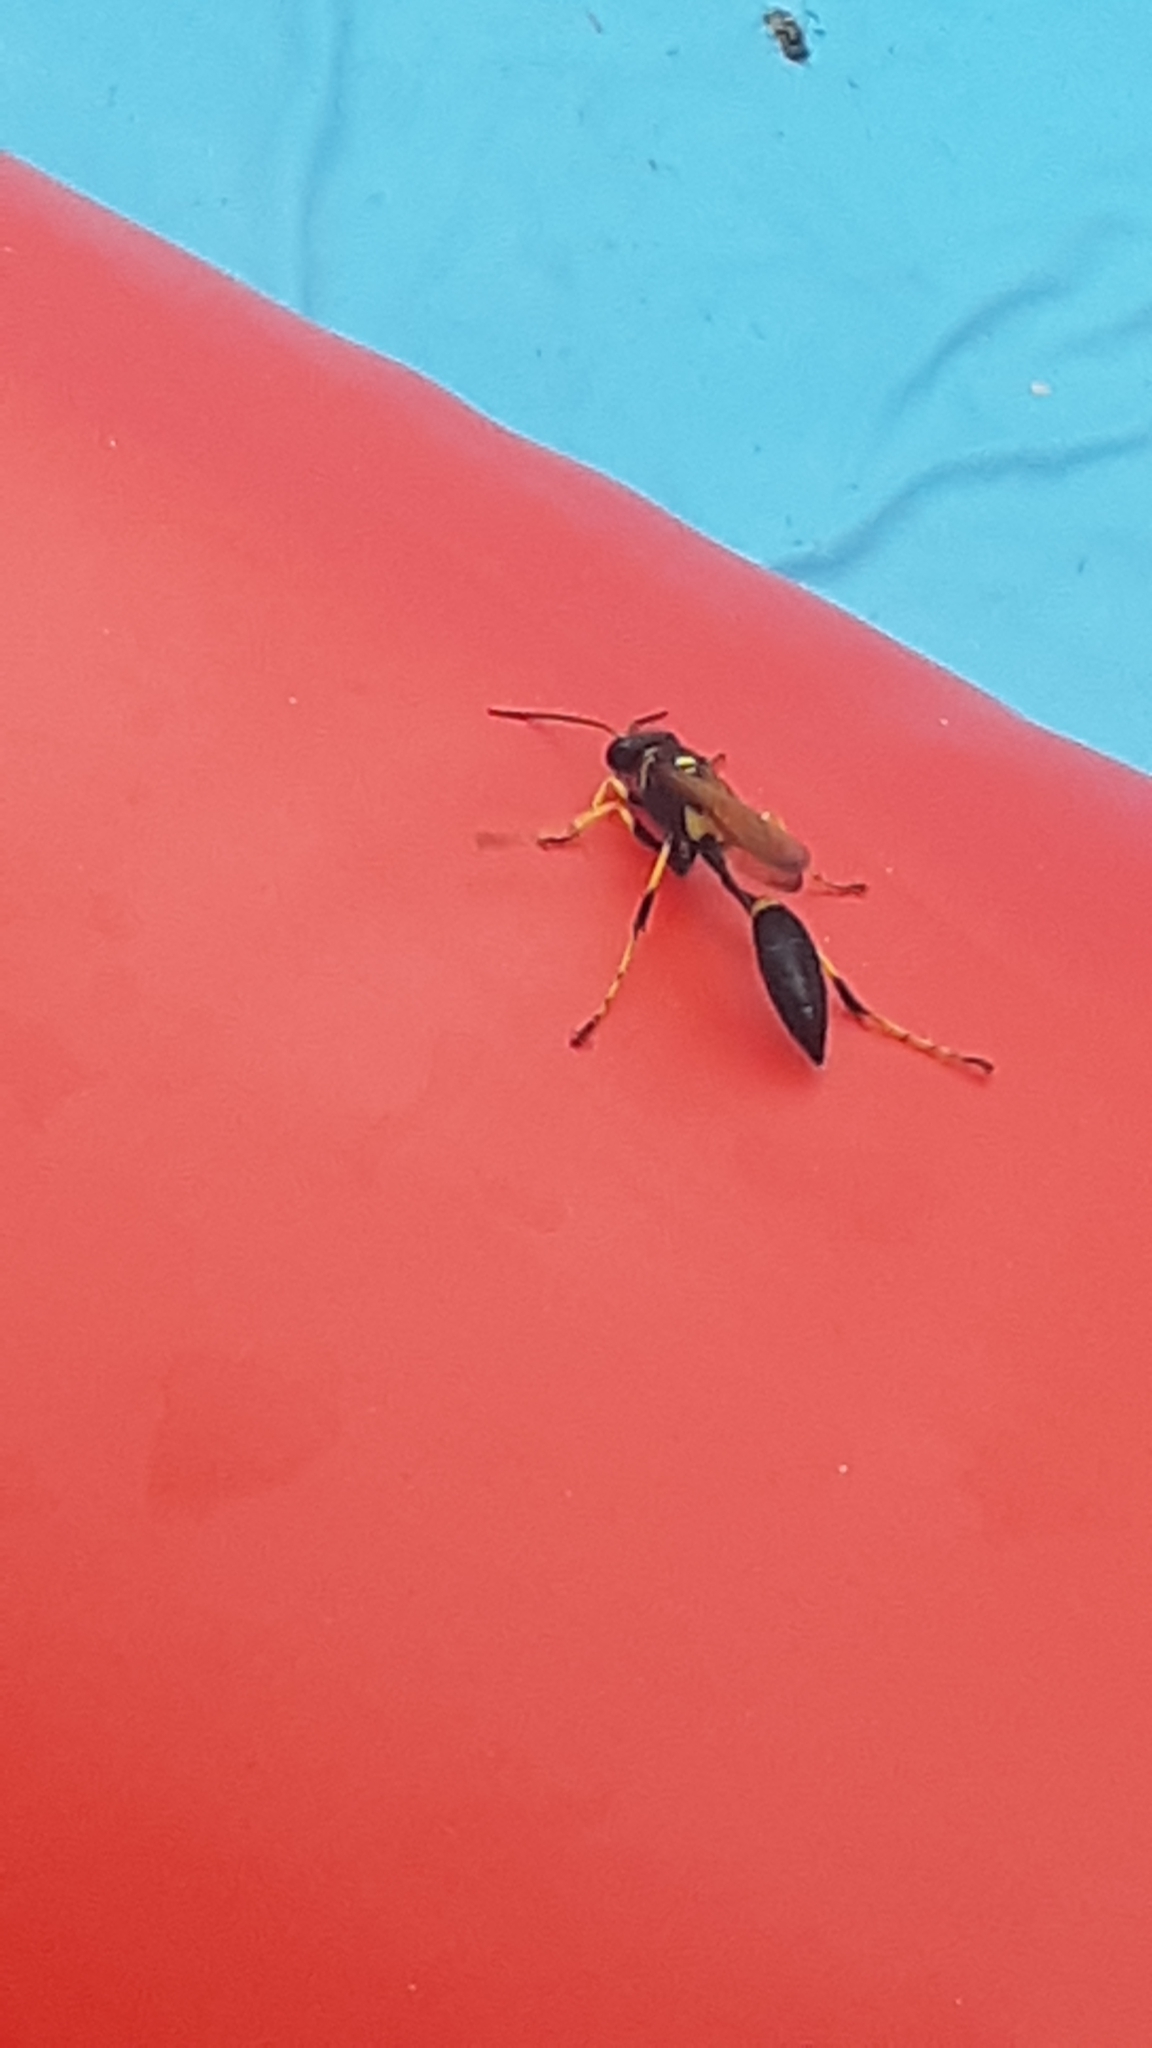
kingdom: Animalia
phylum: Arthropoda
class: Insecta
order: Hymenoptera
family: Sphecidae
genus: Sceliphron
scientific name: Sceliphron caementarium
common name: Mud dauber
